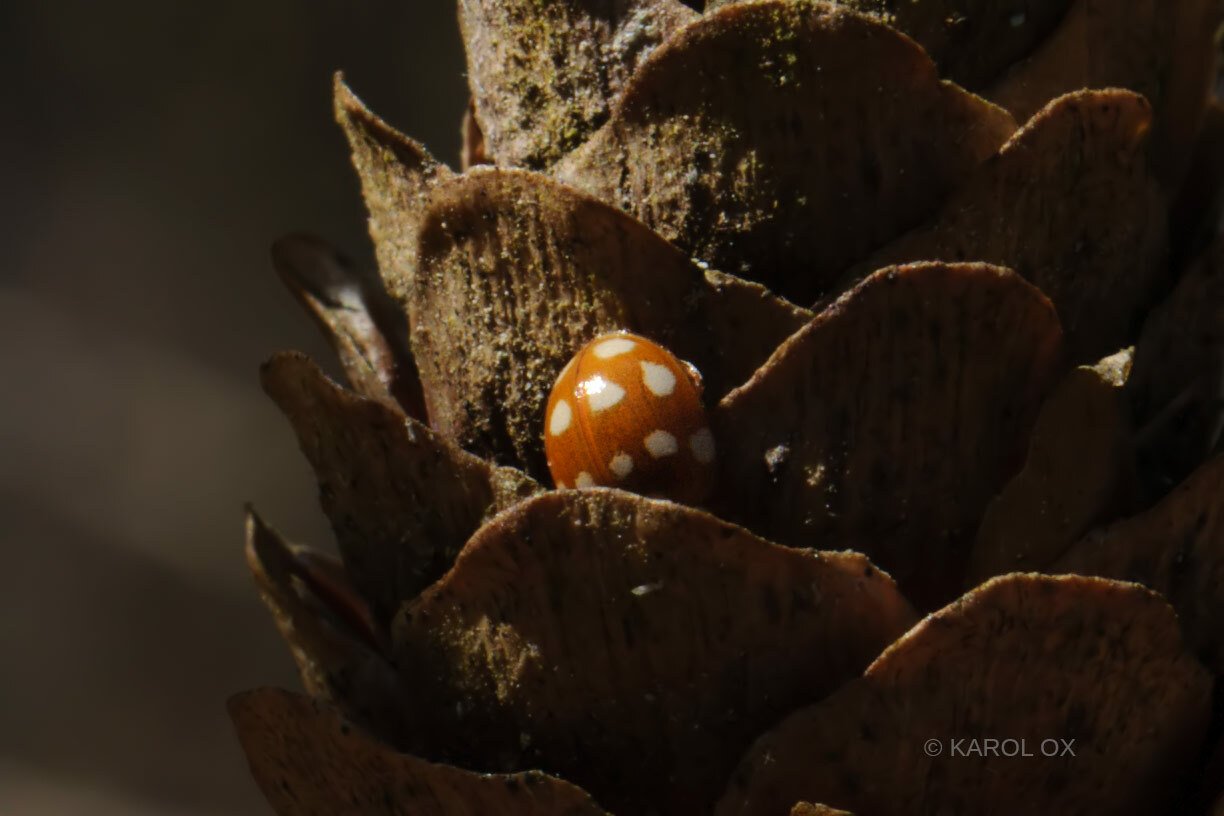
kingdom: Animalia
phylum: Arthropoda
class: Insecta
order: Coleoptera
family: Coccinellidae
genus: Calvia
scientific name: Calvia quatuordecimguttata
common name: Cream-spot ladybird
